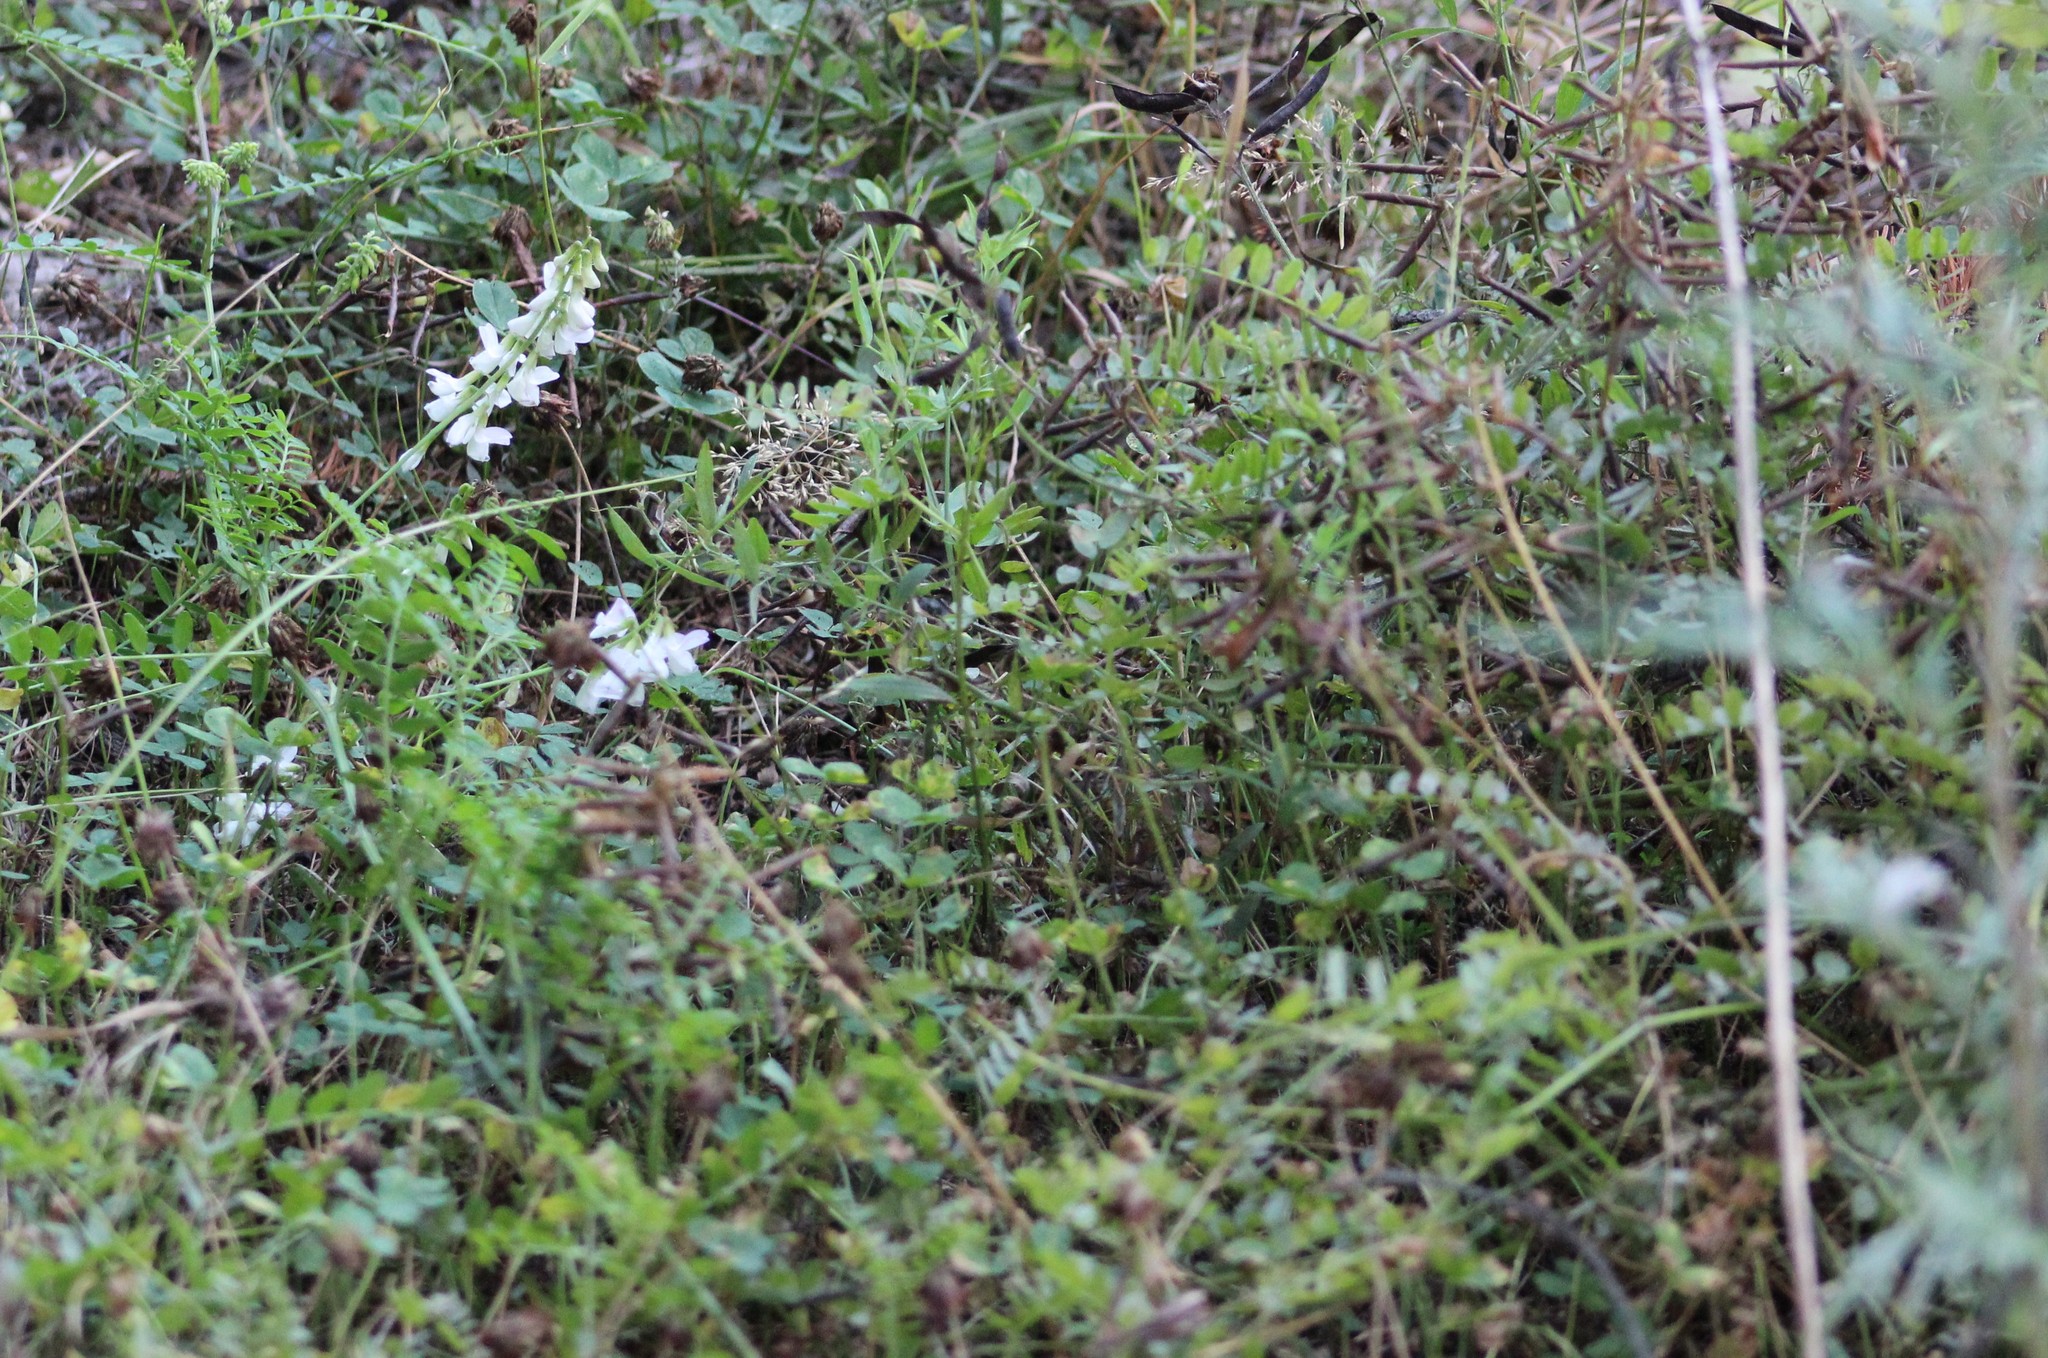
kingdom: Plantae
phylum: Tracheophyta
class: Magnoliopsida
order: Fabales
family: Fabaceae
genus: Vicia
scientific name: Vicia sylvatica
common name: Wood vetch
